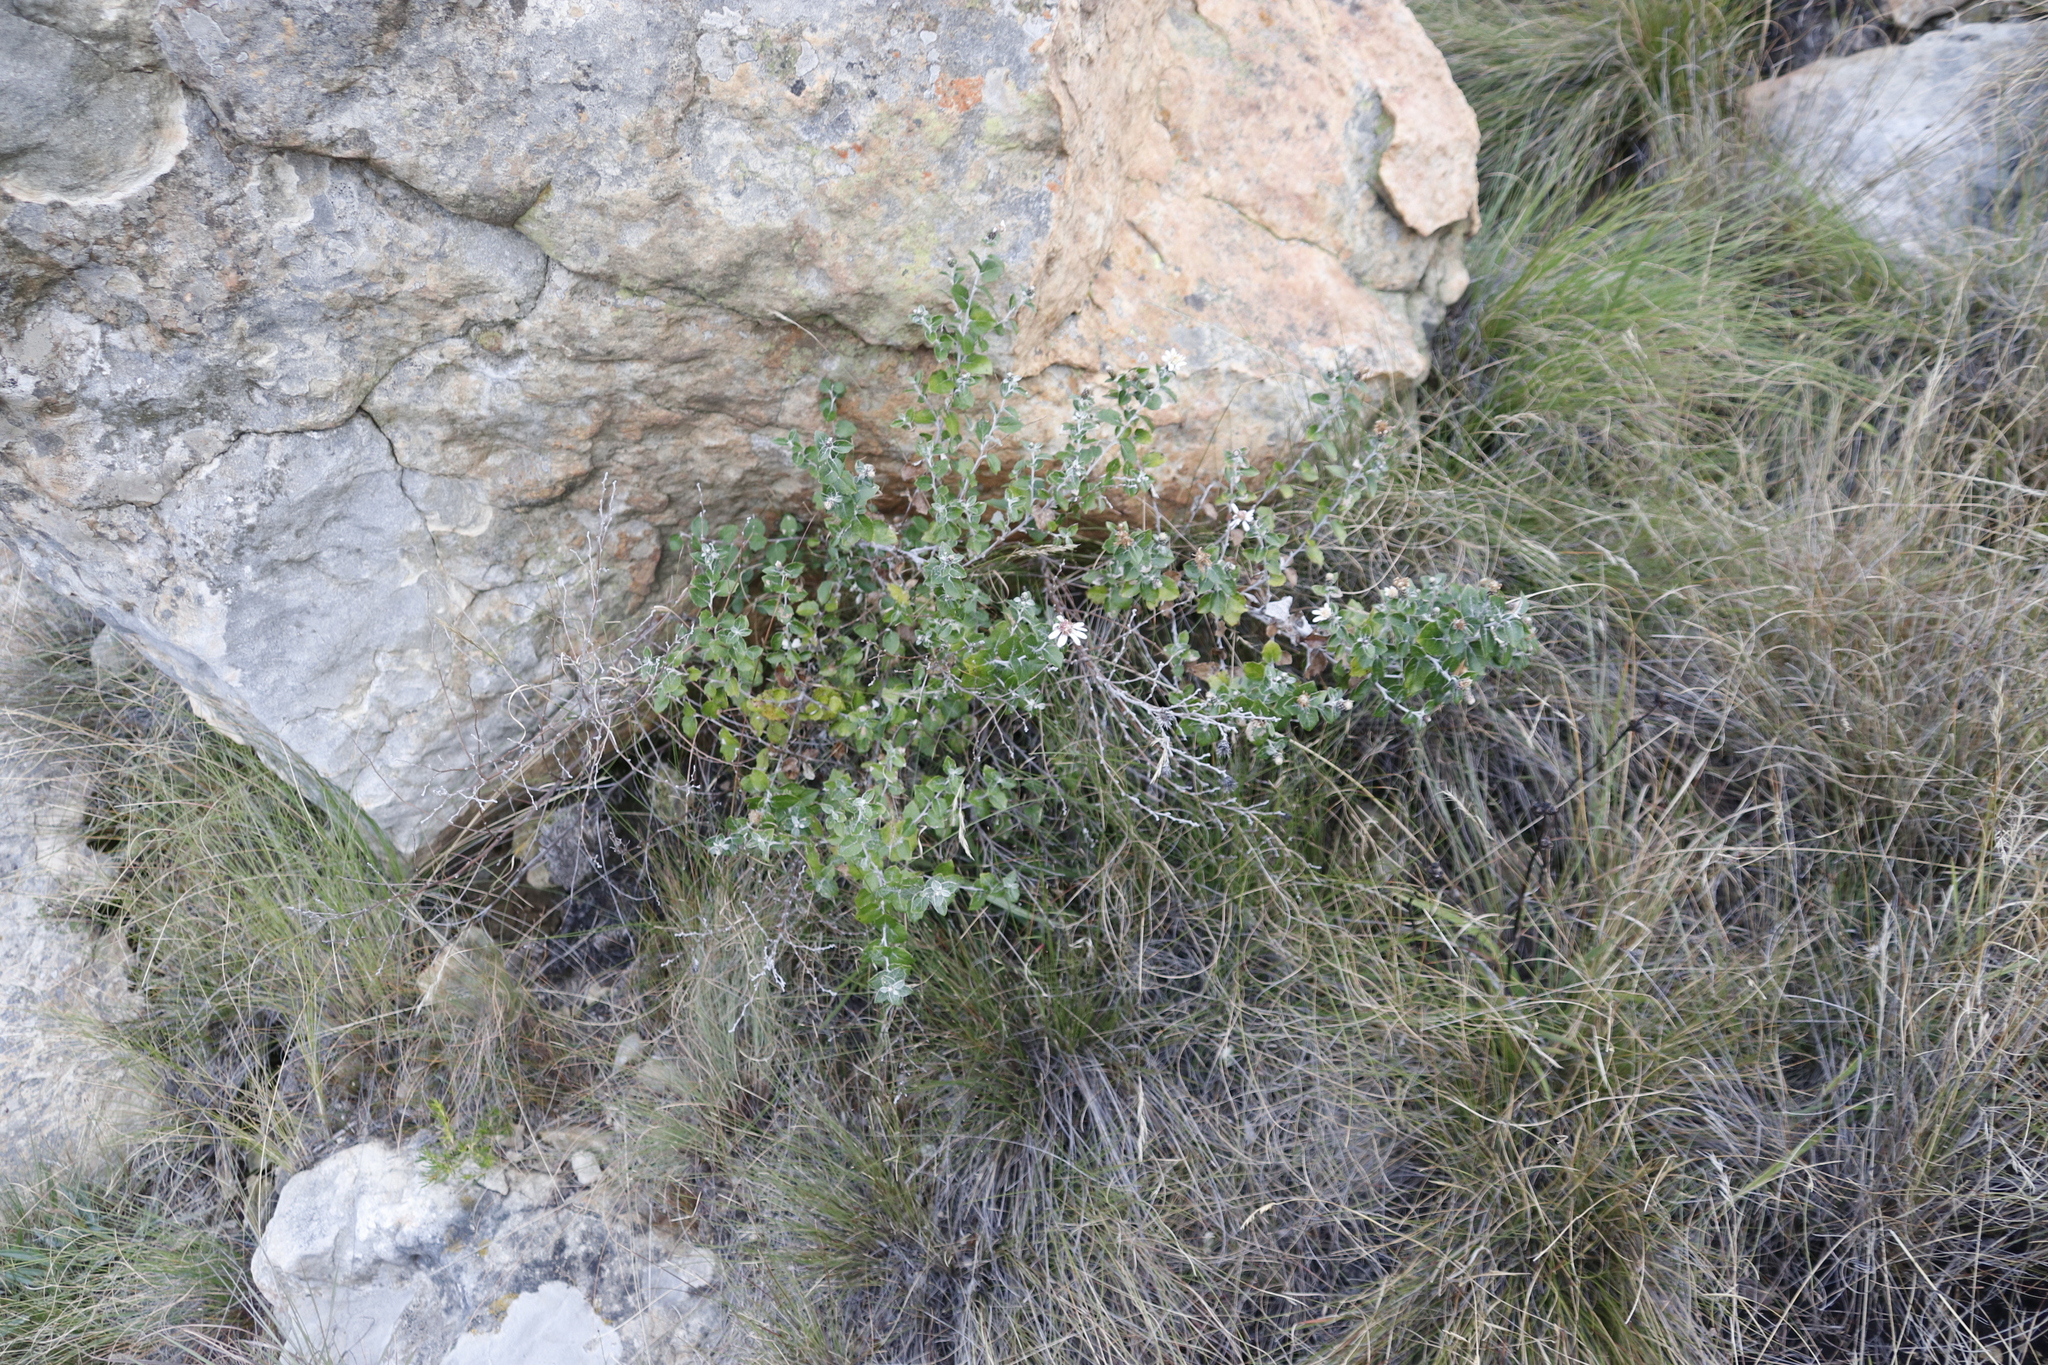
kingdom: Plantae
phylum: Tracheophyta
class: Magnoliopsida
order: Asterales
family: Asteraceae
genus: Printzia
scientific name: Printzia pyrifolia
